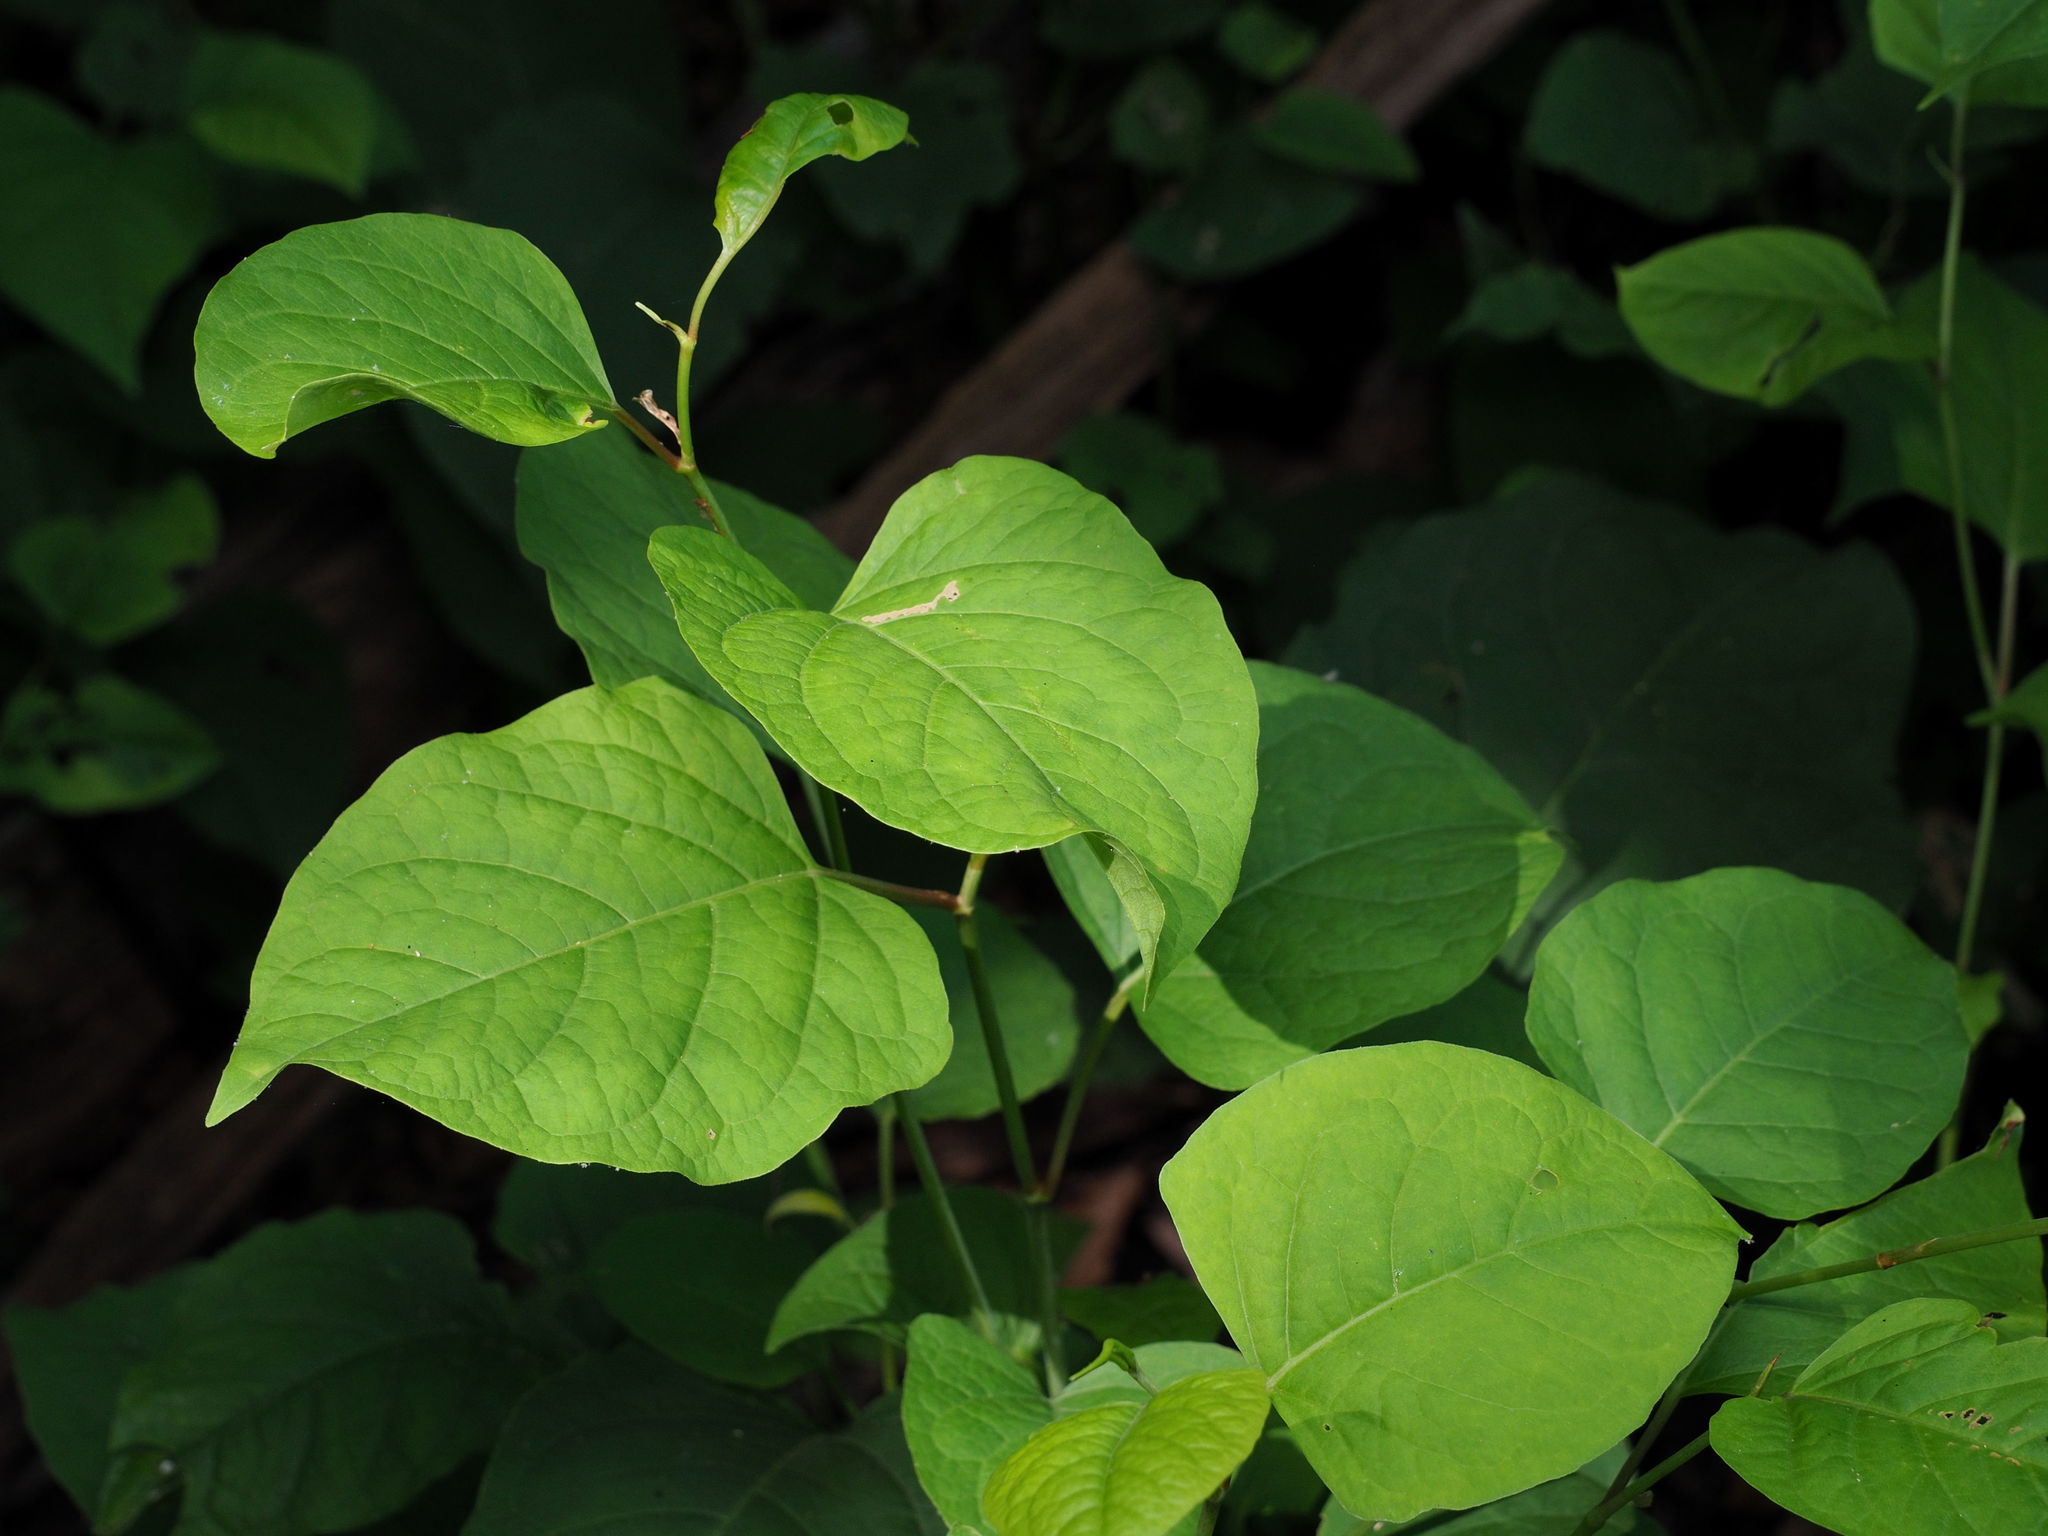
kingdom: Plantae
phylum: Tracheophyta
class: Magnoliopsida
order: Caryophyllales
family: Polygonaceae
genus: Reynoutria
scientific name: Reynoutria japonica
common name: Japanese knotweed
